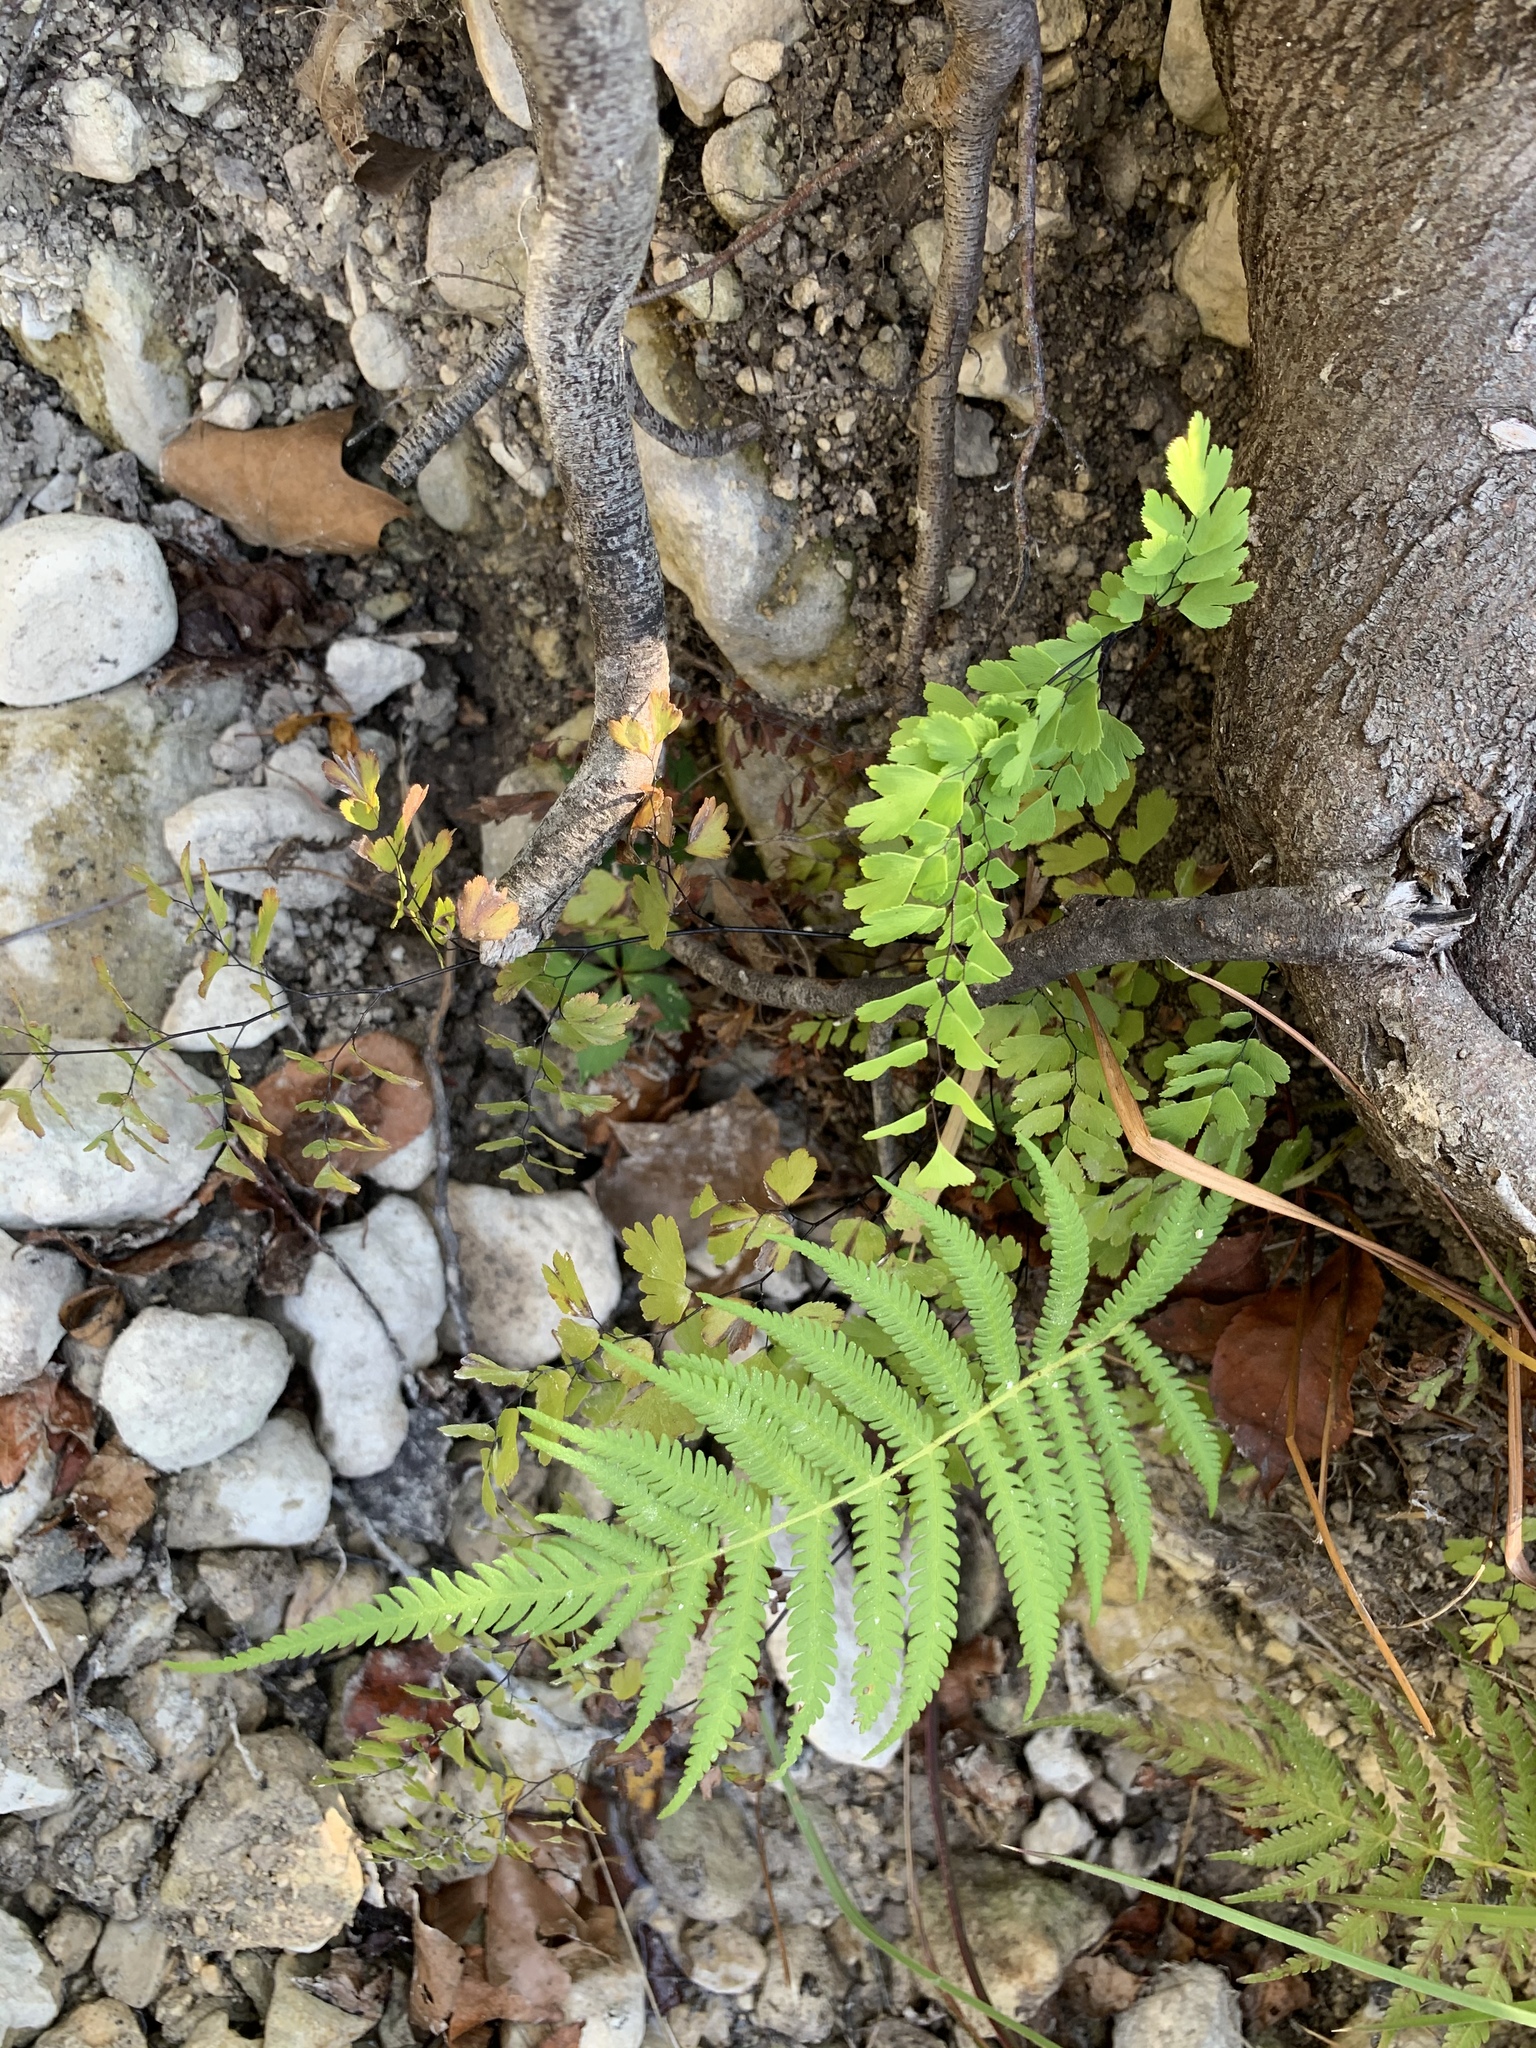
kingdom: Plantae
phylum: Tracheophyta
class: Polypodiopsida
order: Polypodiales
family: Thelypteridaceae
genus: Pelazoneuron
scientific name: Pelazoneuron ovatum
